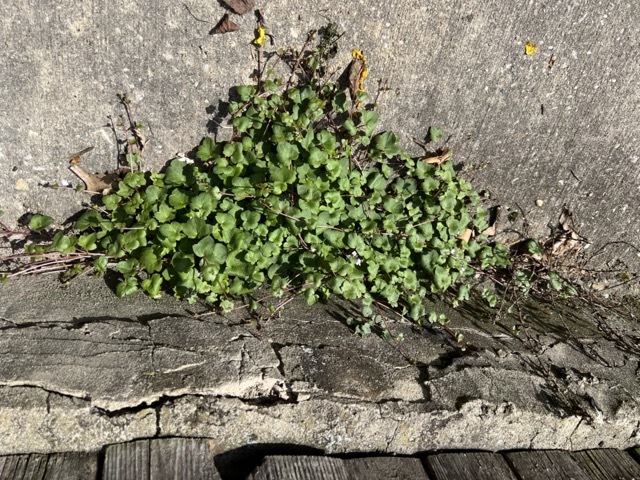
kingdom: Plantae
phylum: Tracheophyta
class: Magnoliopsida
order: Lamiales
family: Plantaginaceae
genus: Cymbalaria
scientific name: Cymbalaria muralis
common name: Ivy-leaved toadflax
